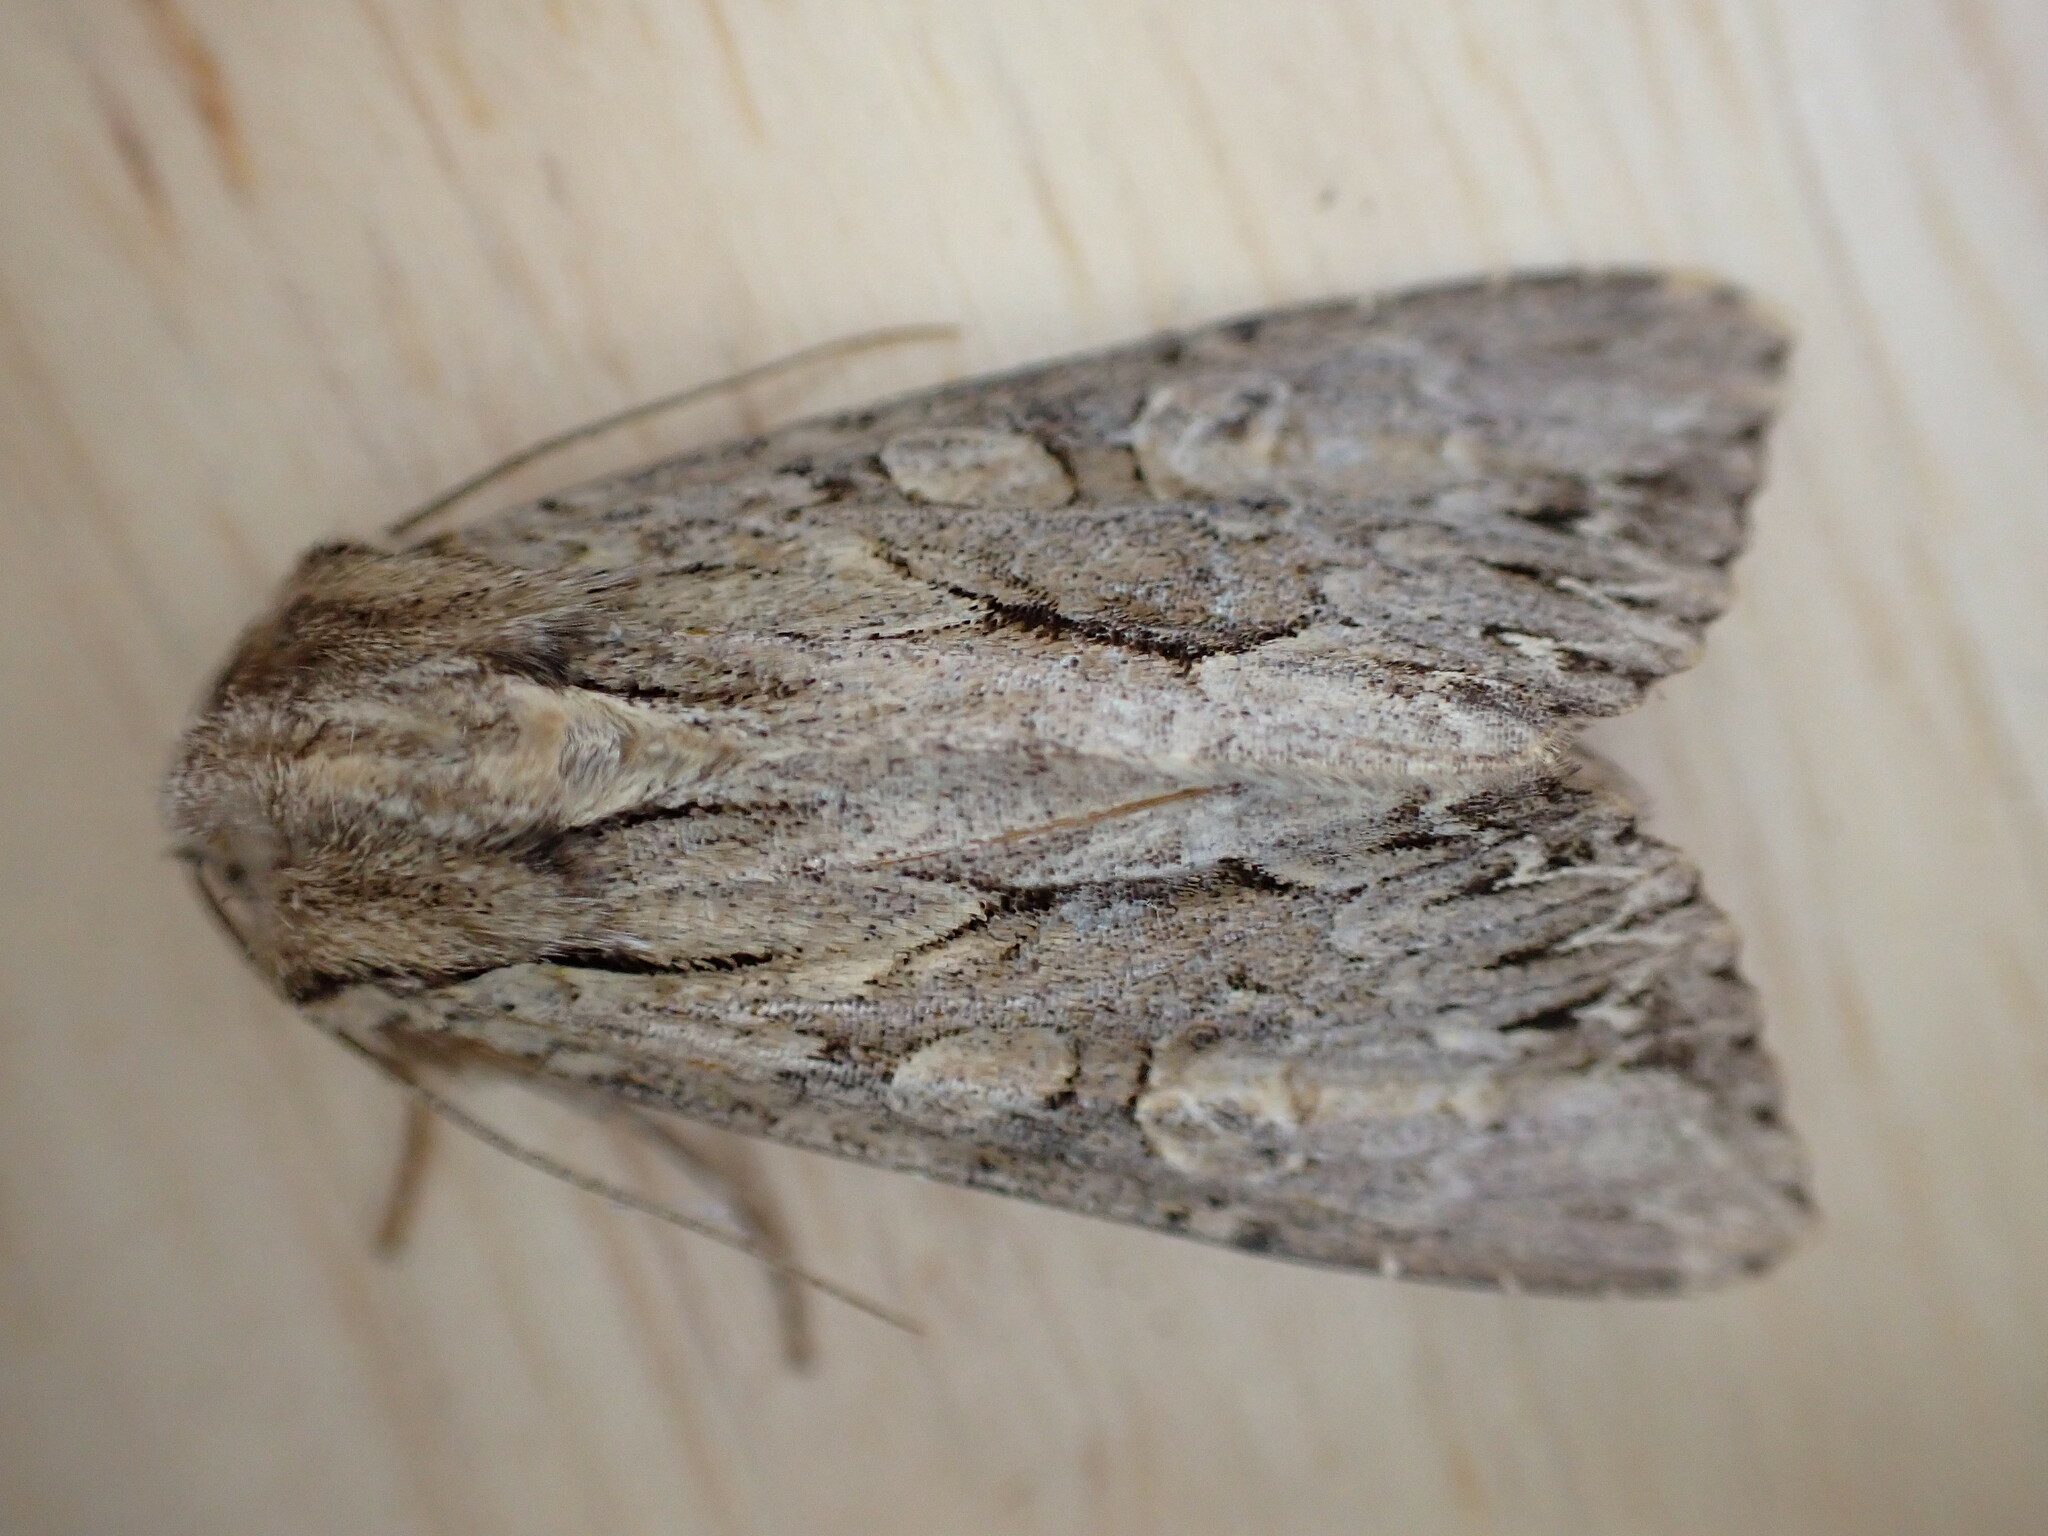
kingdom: Animalia
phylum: Arthropoda
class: Insecta
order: Lepidoptera
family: Noctuidae
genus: Apamea
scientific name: Apamea monoglypha
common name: Dark arches
